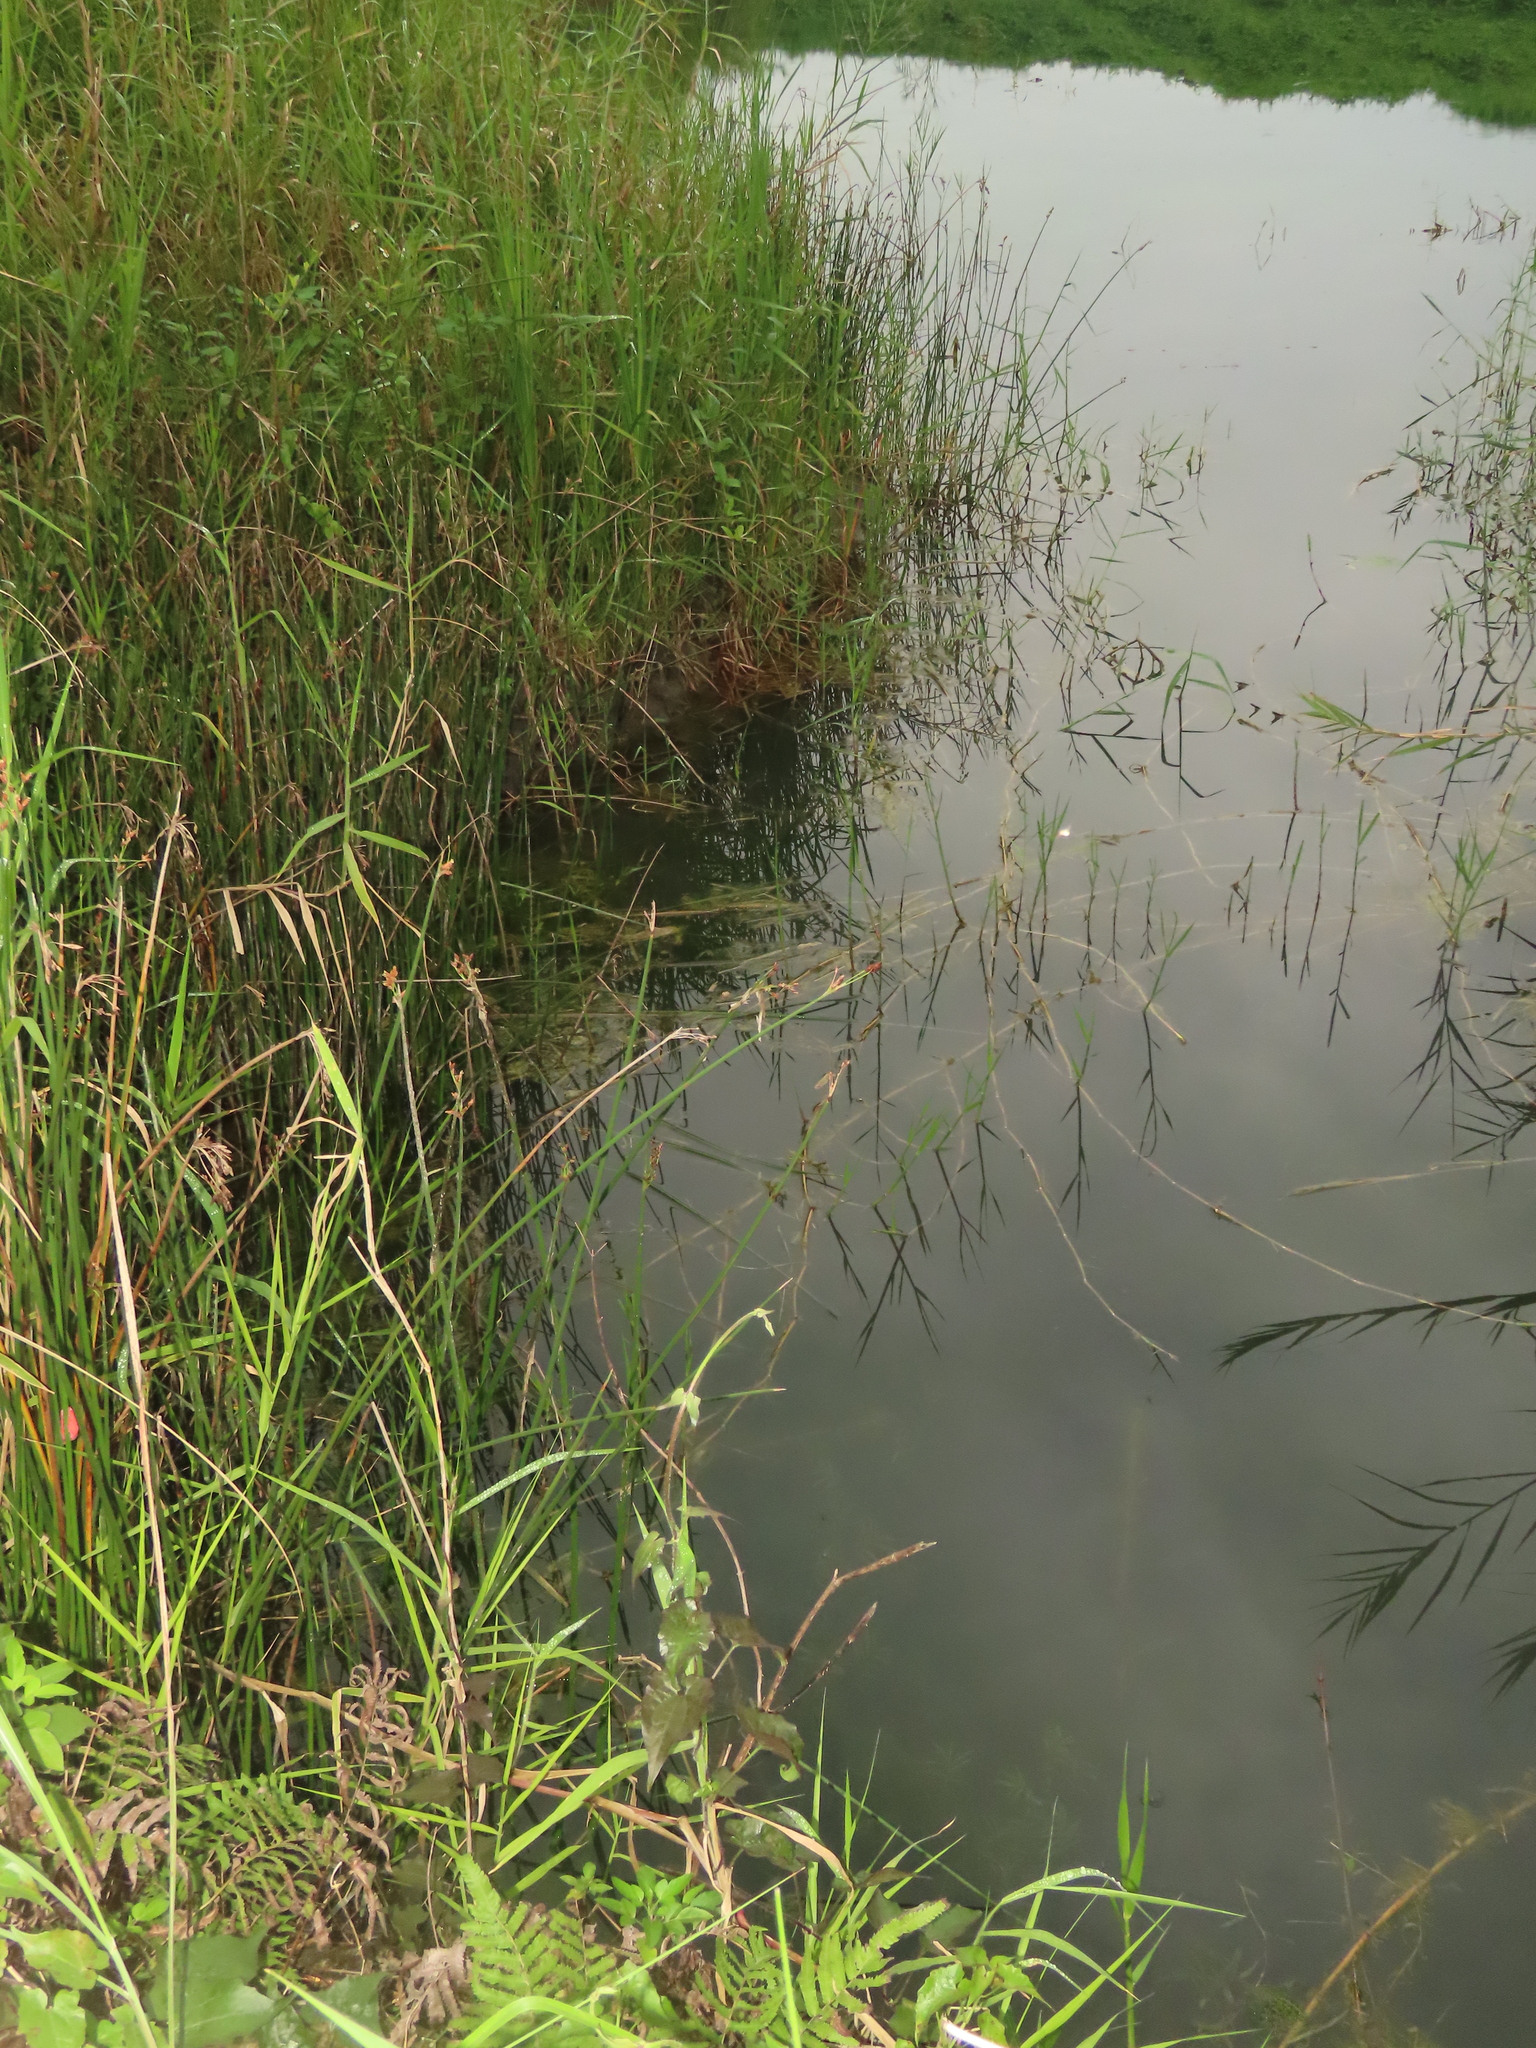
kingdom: Plantae
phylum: Tracheophyta
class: Liliopsida
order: Poales
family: Cyperaceae
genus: Schoenoplectus
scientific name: Schoenoplectus tabernaemontani
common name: Grey club-rush
